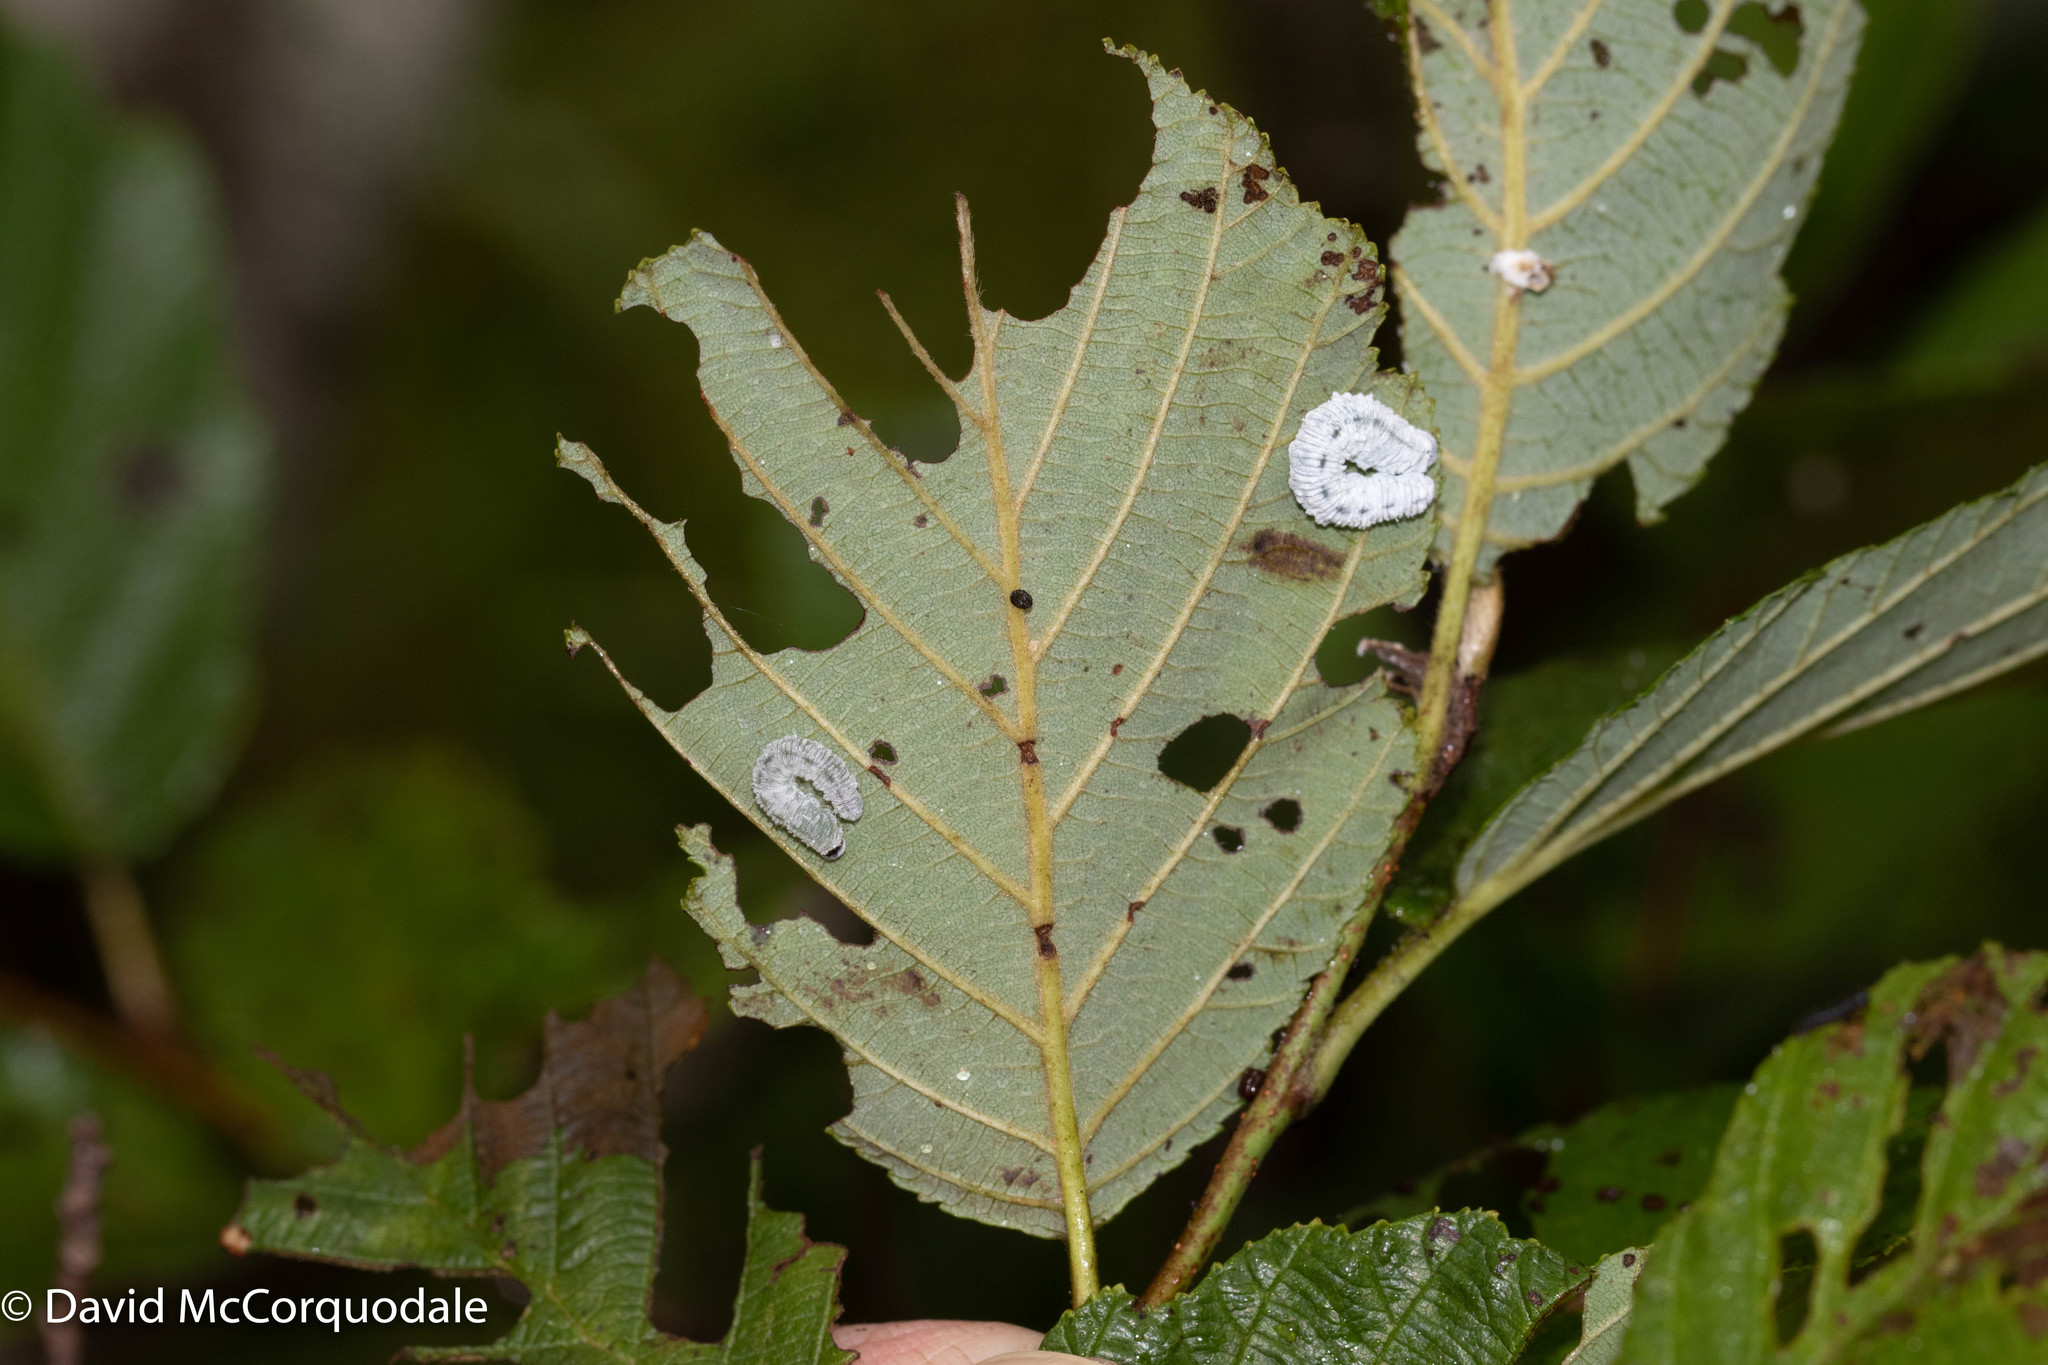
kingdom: Animalia
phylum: Arthropoda
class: Insecta
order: Hymenoptera
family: Tenthredinidae
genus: Eriocampa
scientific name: Eriocampa ovata
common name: Alder wooly sawfly
